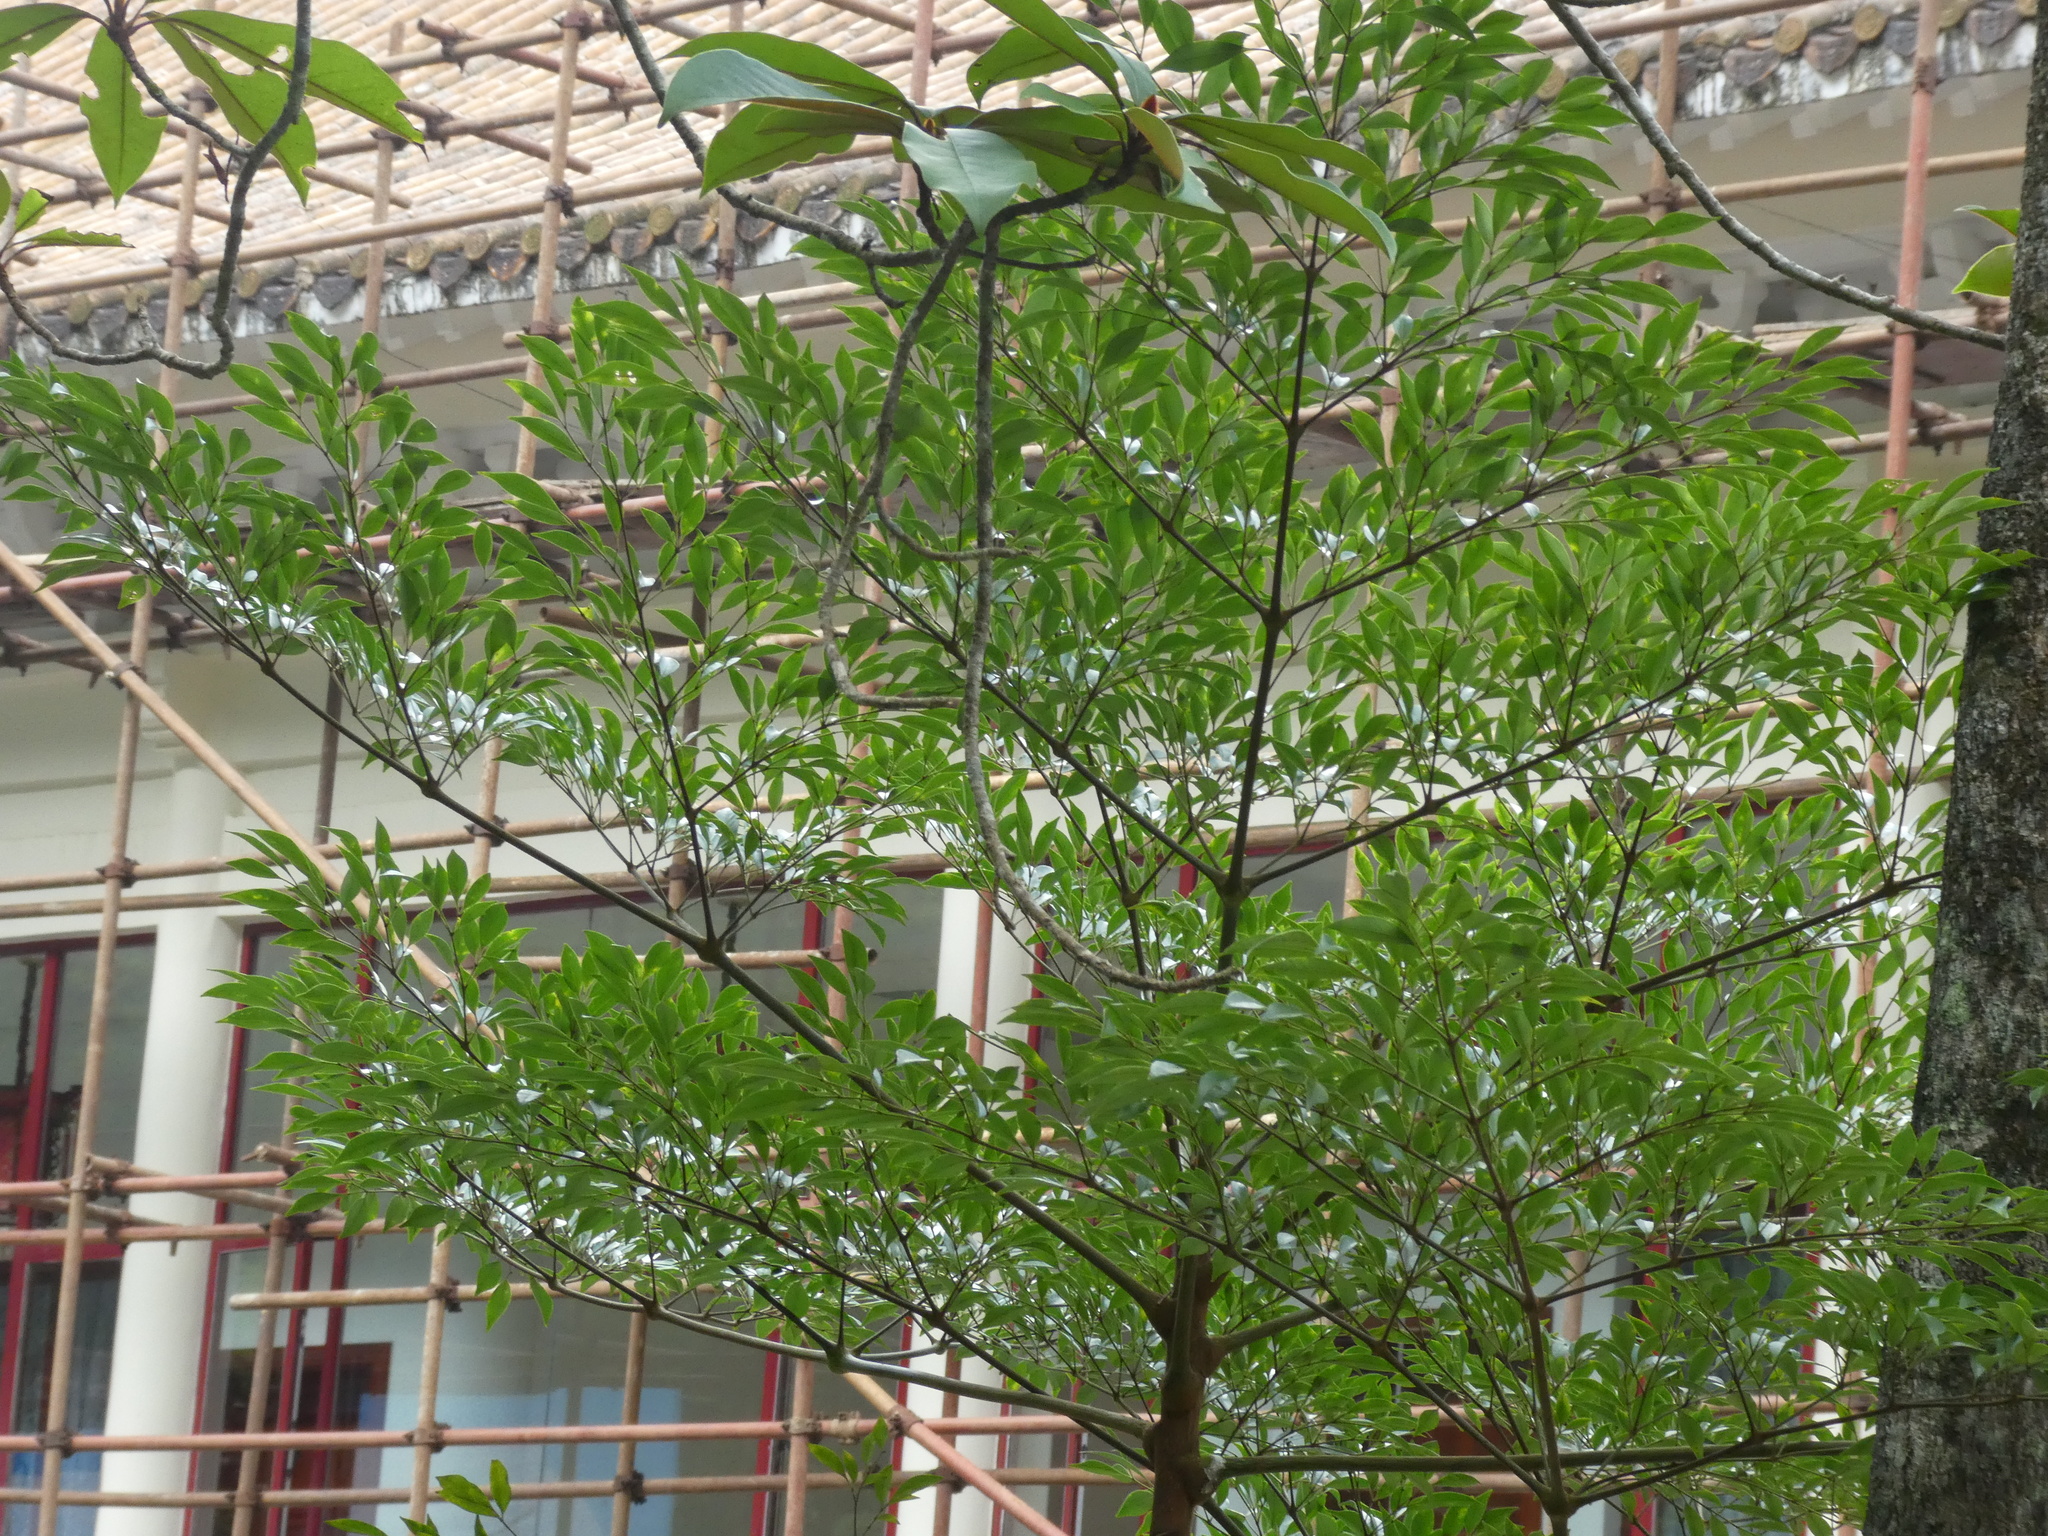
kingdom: Plantae
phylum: Tracheophyta
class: Magnoliopsida
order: Apiales
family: Araliaceae
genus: Heteropanax
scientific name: Heteropanax brevipedicellatus
